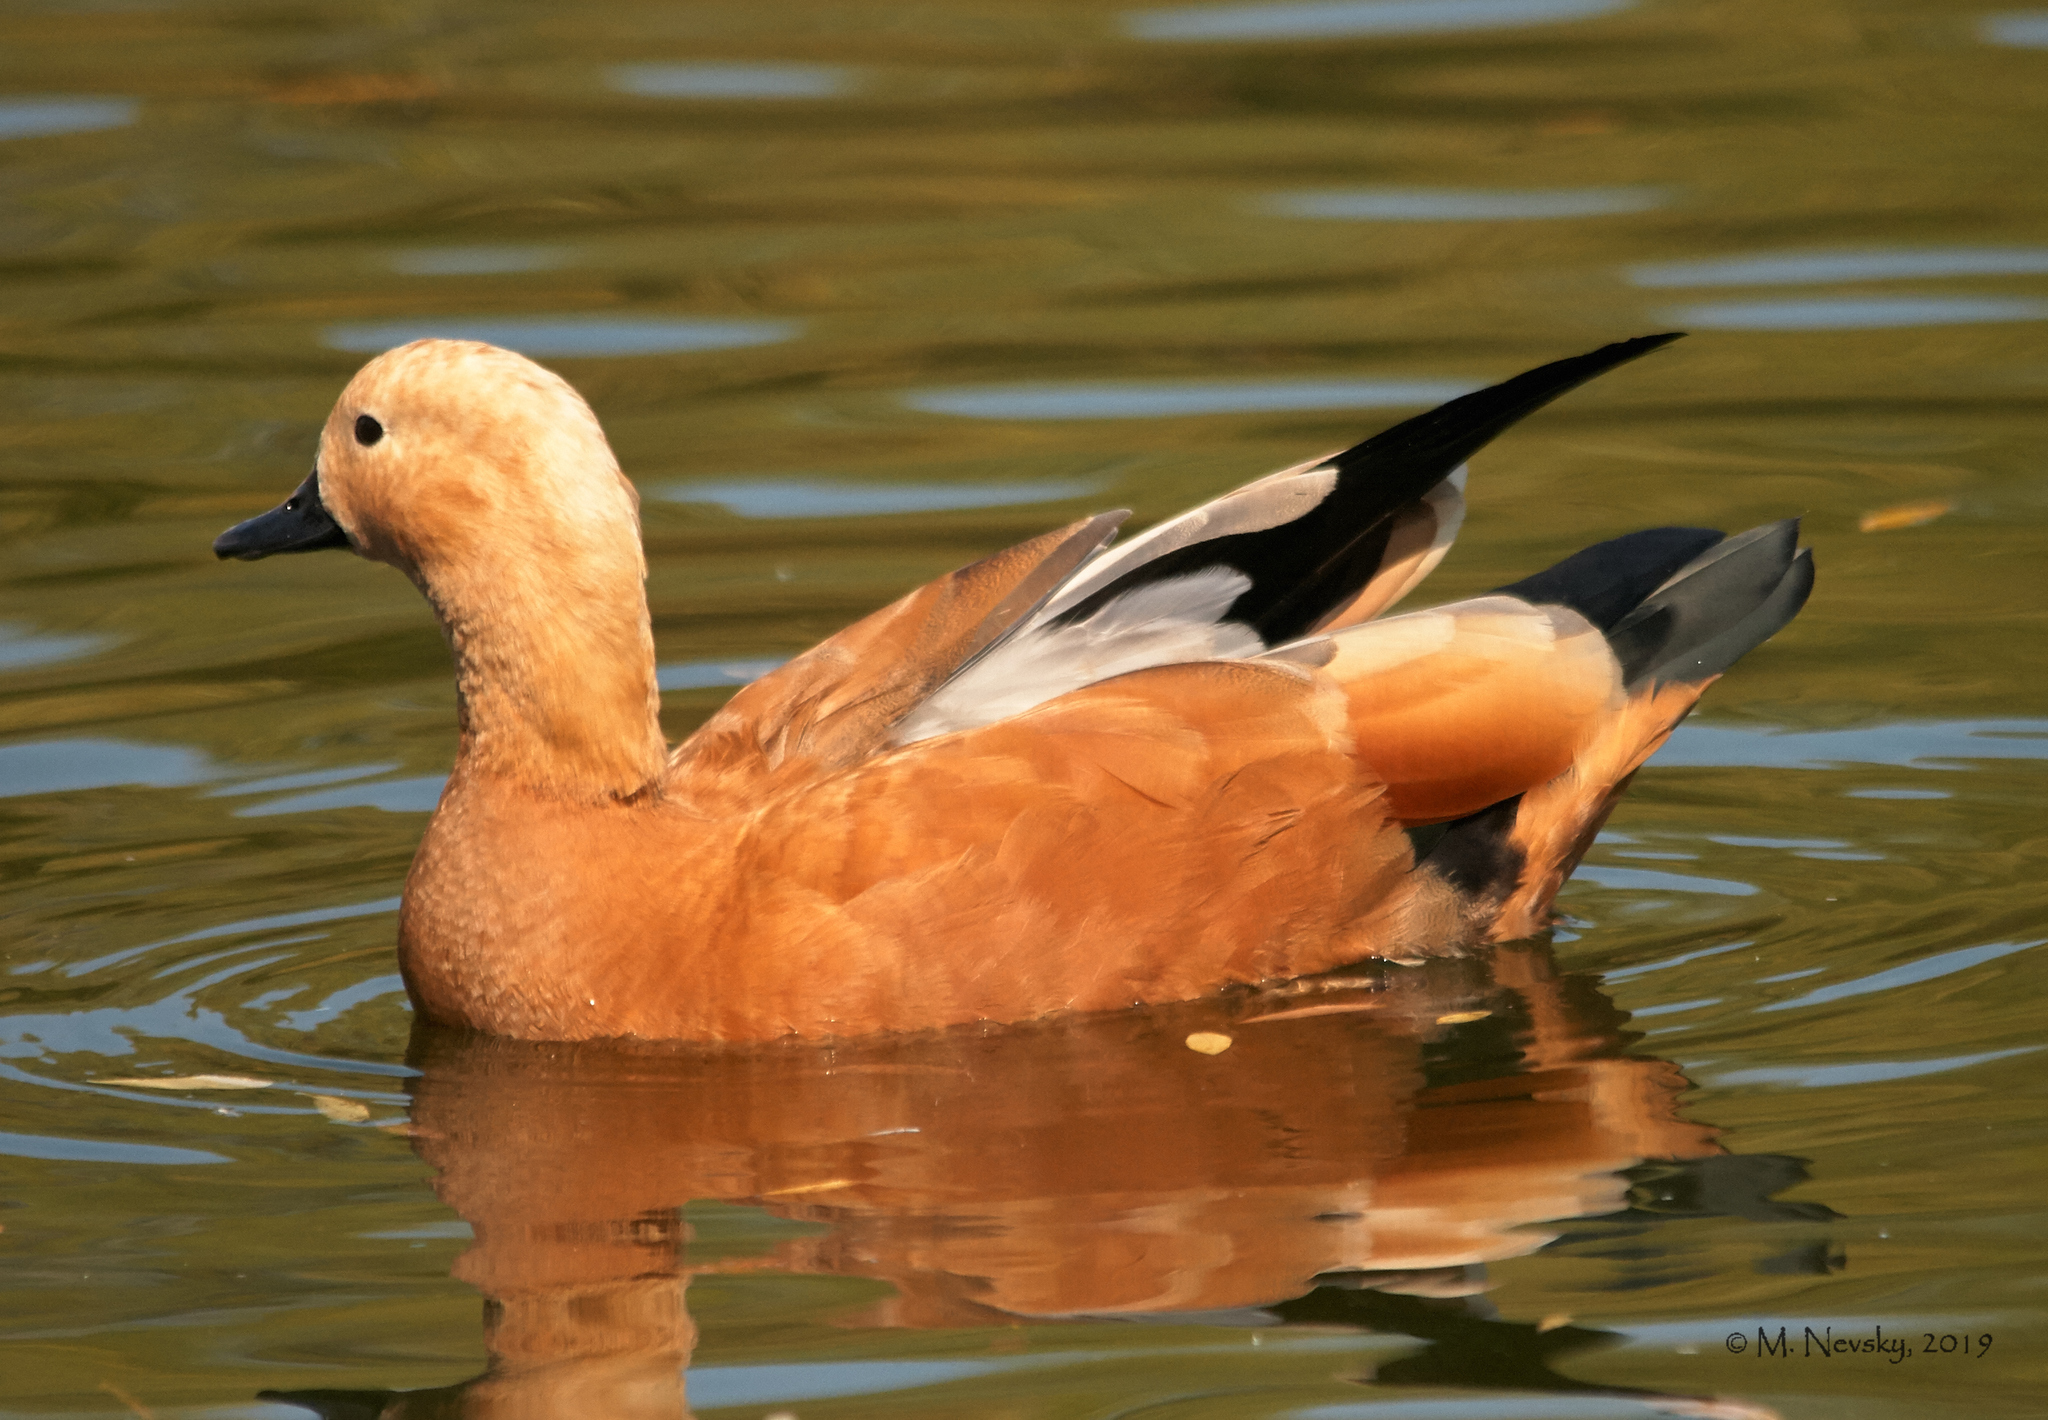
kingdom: Animalia
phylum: Chordata
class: Aves
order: Anseriformes
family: Anatidae
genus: Tadorna
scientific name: Tadorna ferruginea
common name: Ruddy shelduck
